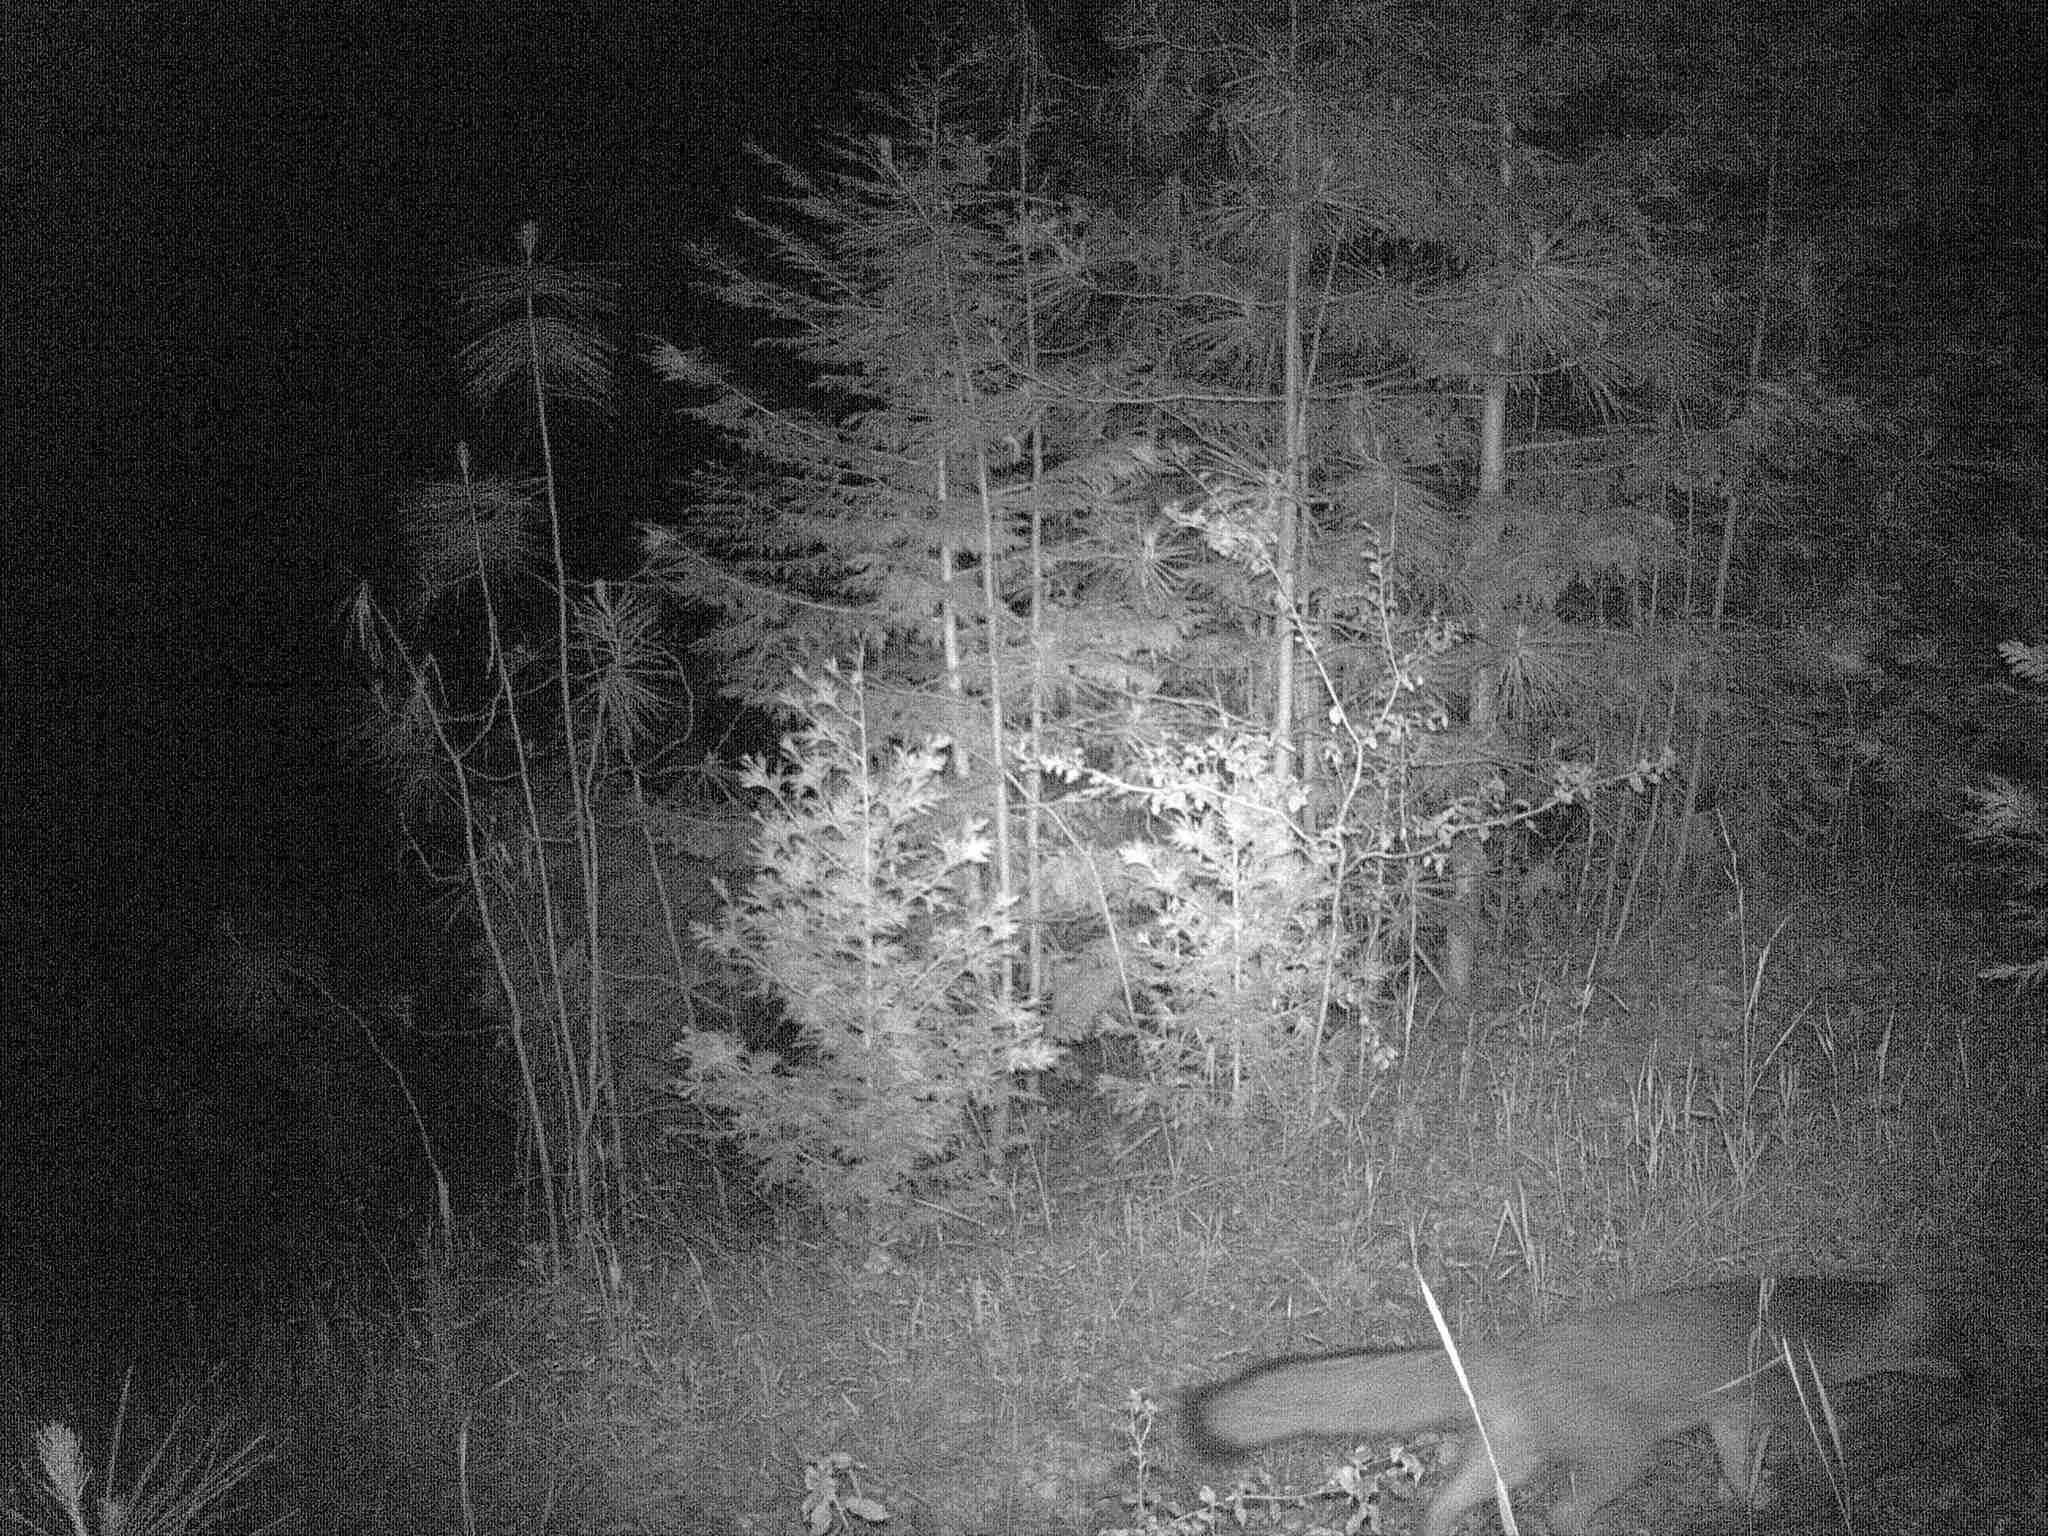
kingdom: Animalia
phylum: Chordata
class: Mammalia
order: Carnivora
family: Canidae
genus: Urocyon
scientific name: Urocyon cinereoargenteus
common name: Gray fox
